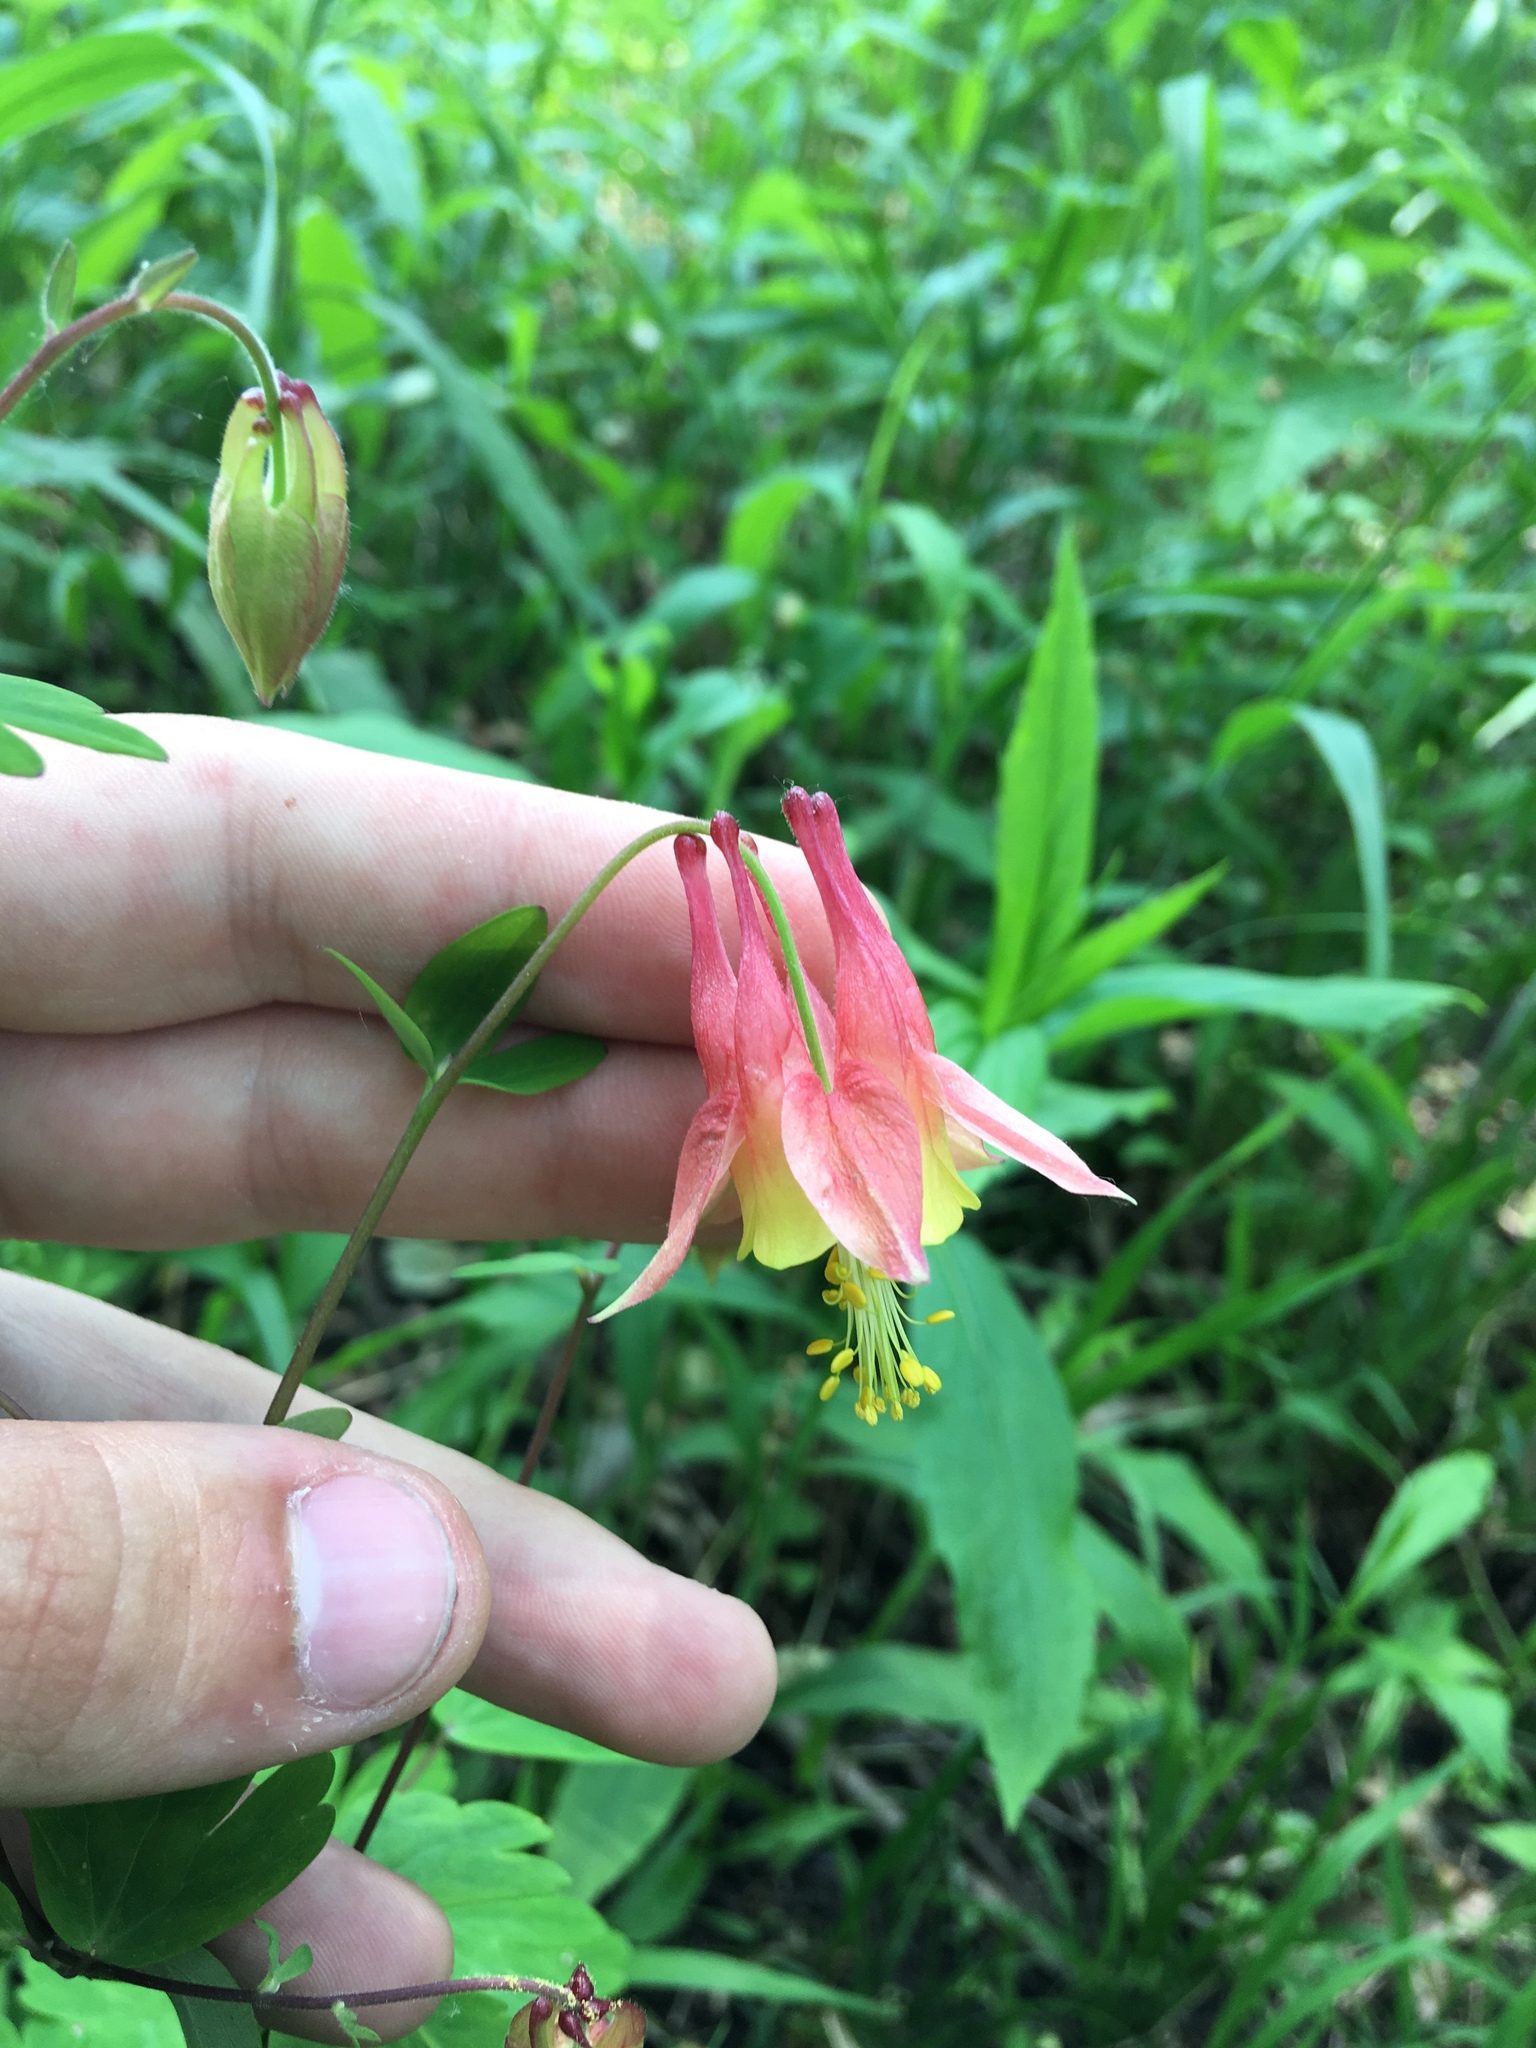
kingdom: Plantae
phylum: Tracheophyta
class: Magnoliopsida
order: Ranunculales
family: Ranunculaceae
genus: Aquilegia
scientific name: Aquilegia canadensis
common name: American columbine
